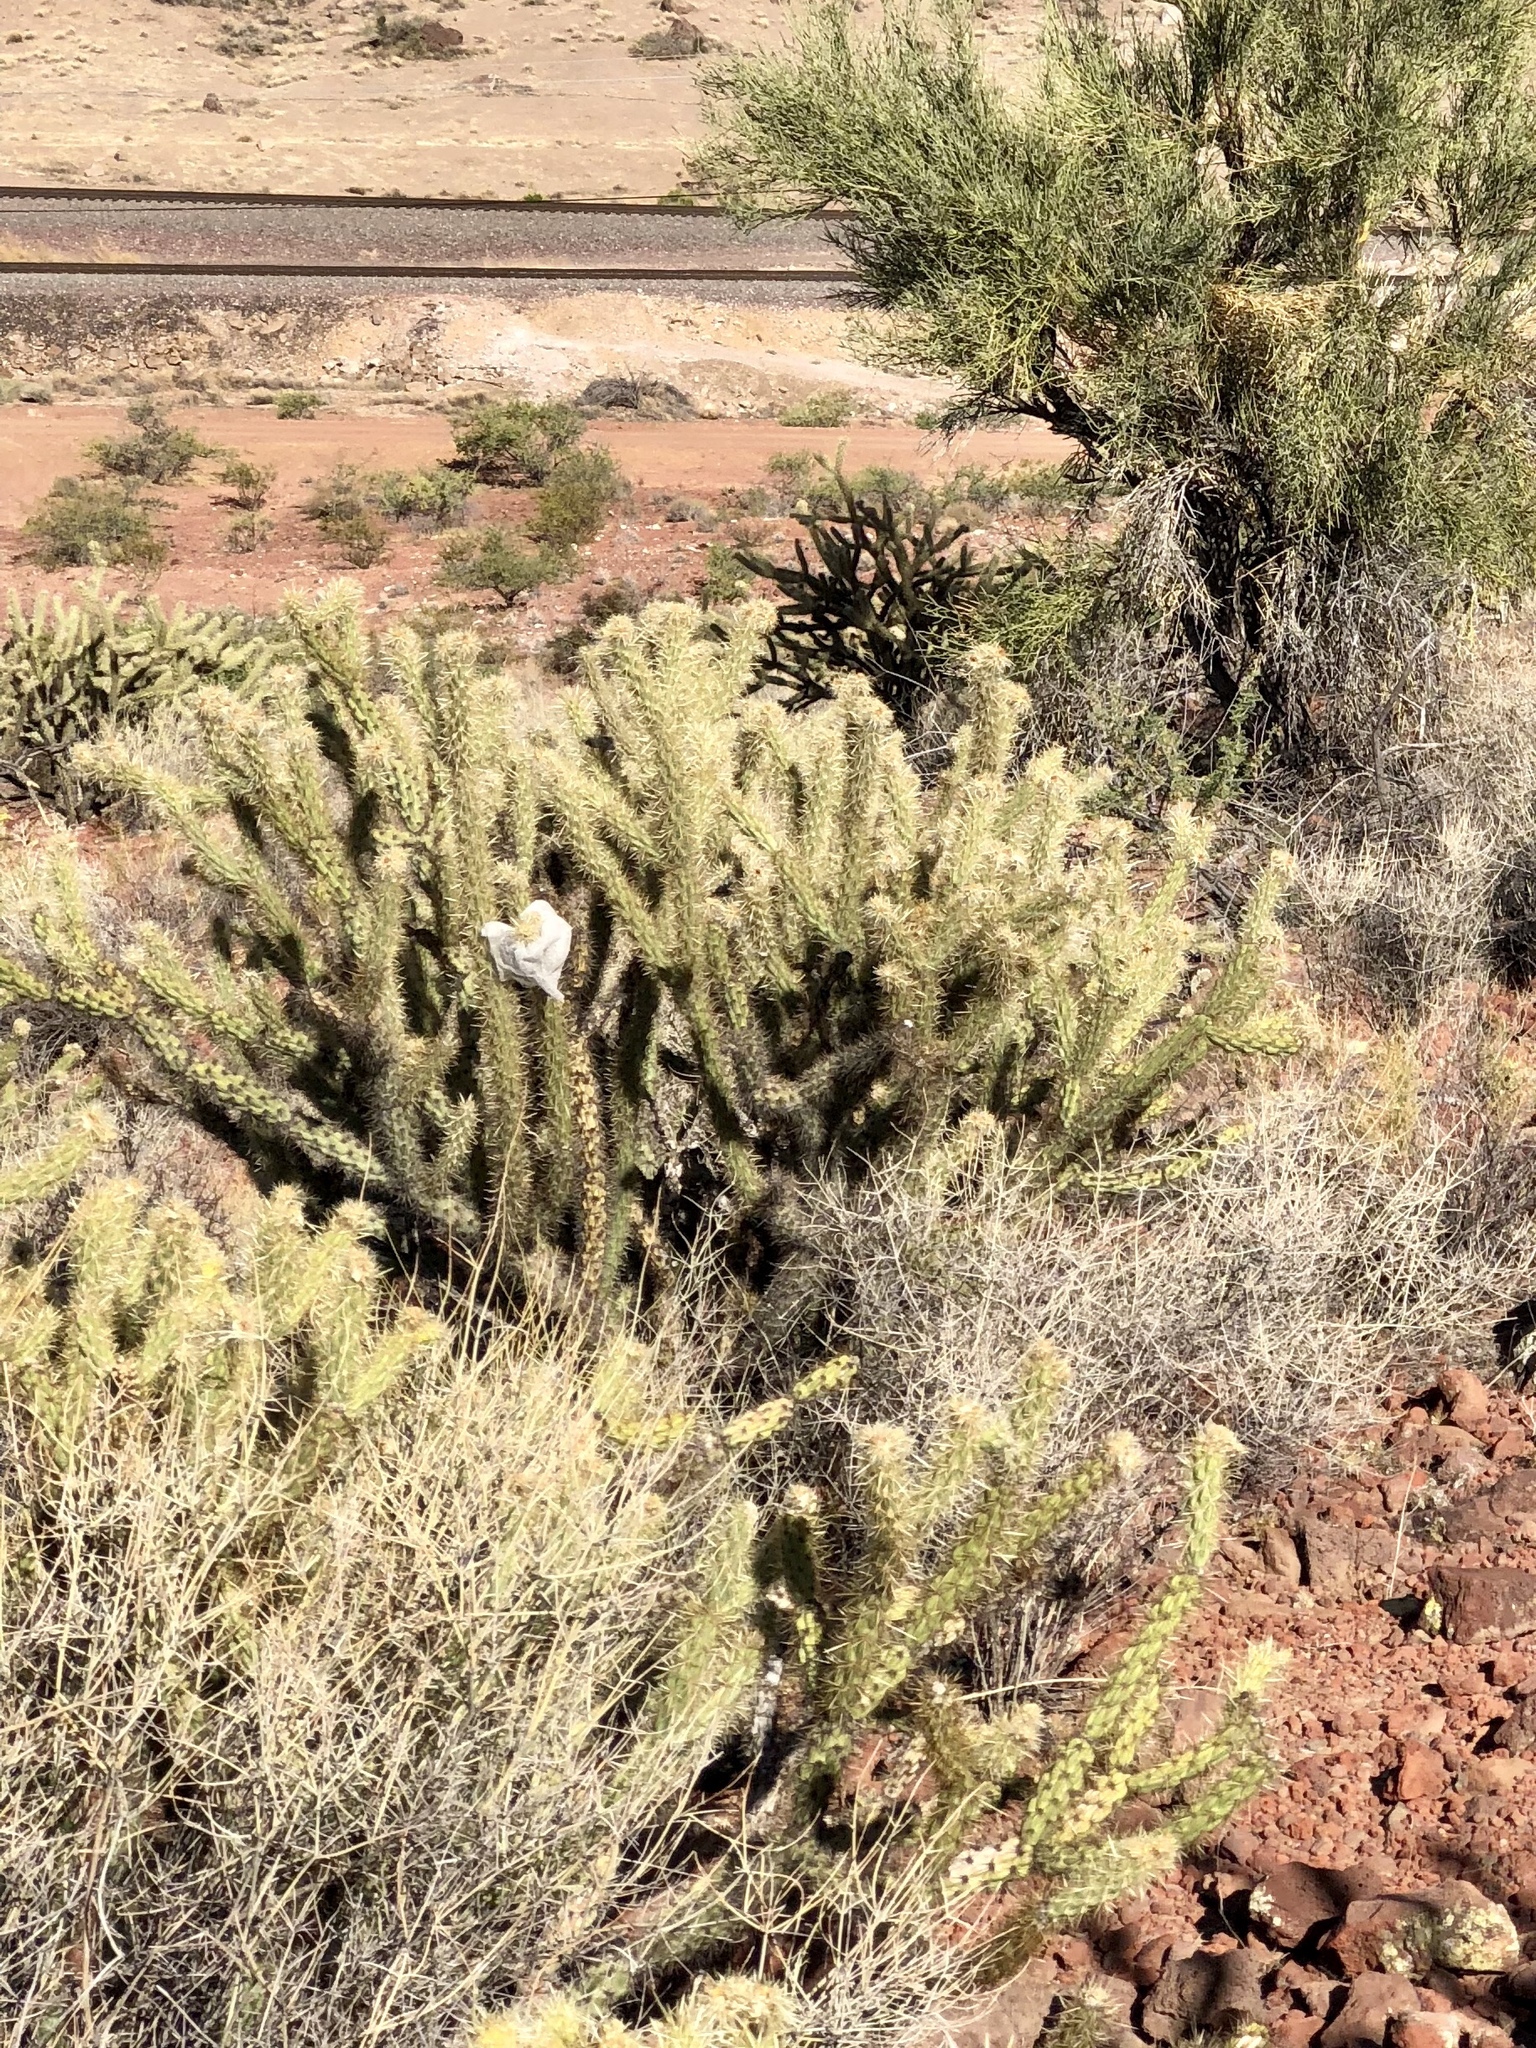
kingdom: Plantae
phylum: Tracheophyta
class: Magnoliopsida
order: Caryophyllales
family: Cactaceae
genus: Cylindropuntia
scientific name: Cylindropuntia acanthocarpa
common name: Buckhorn cholla
